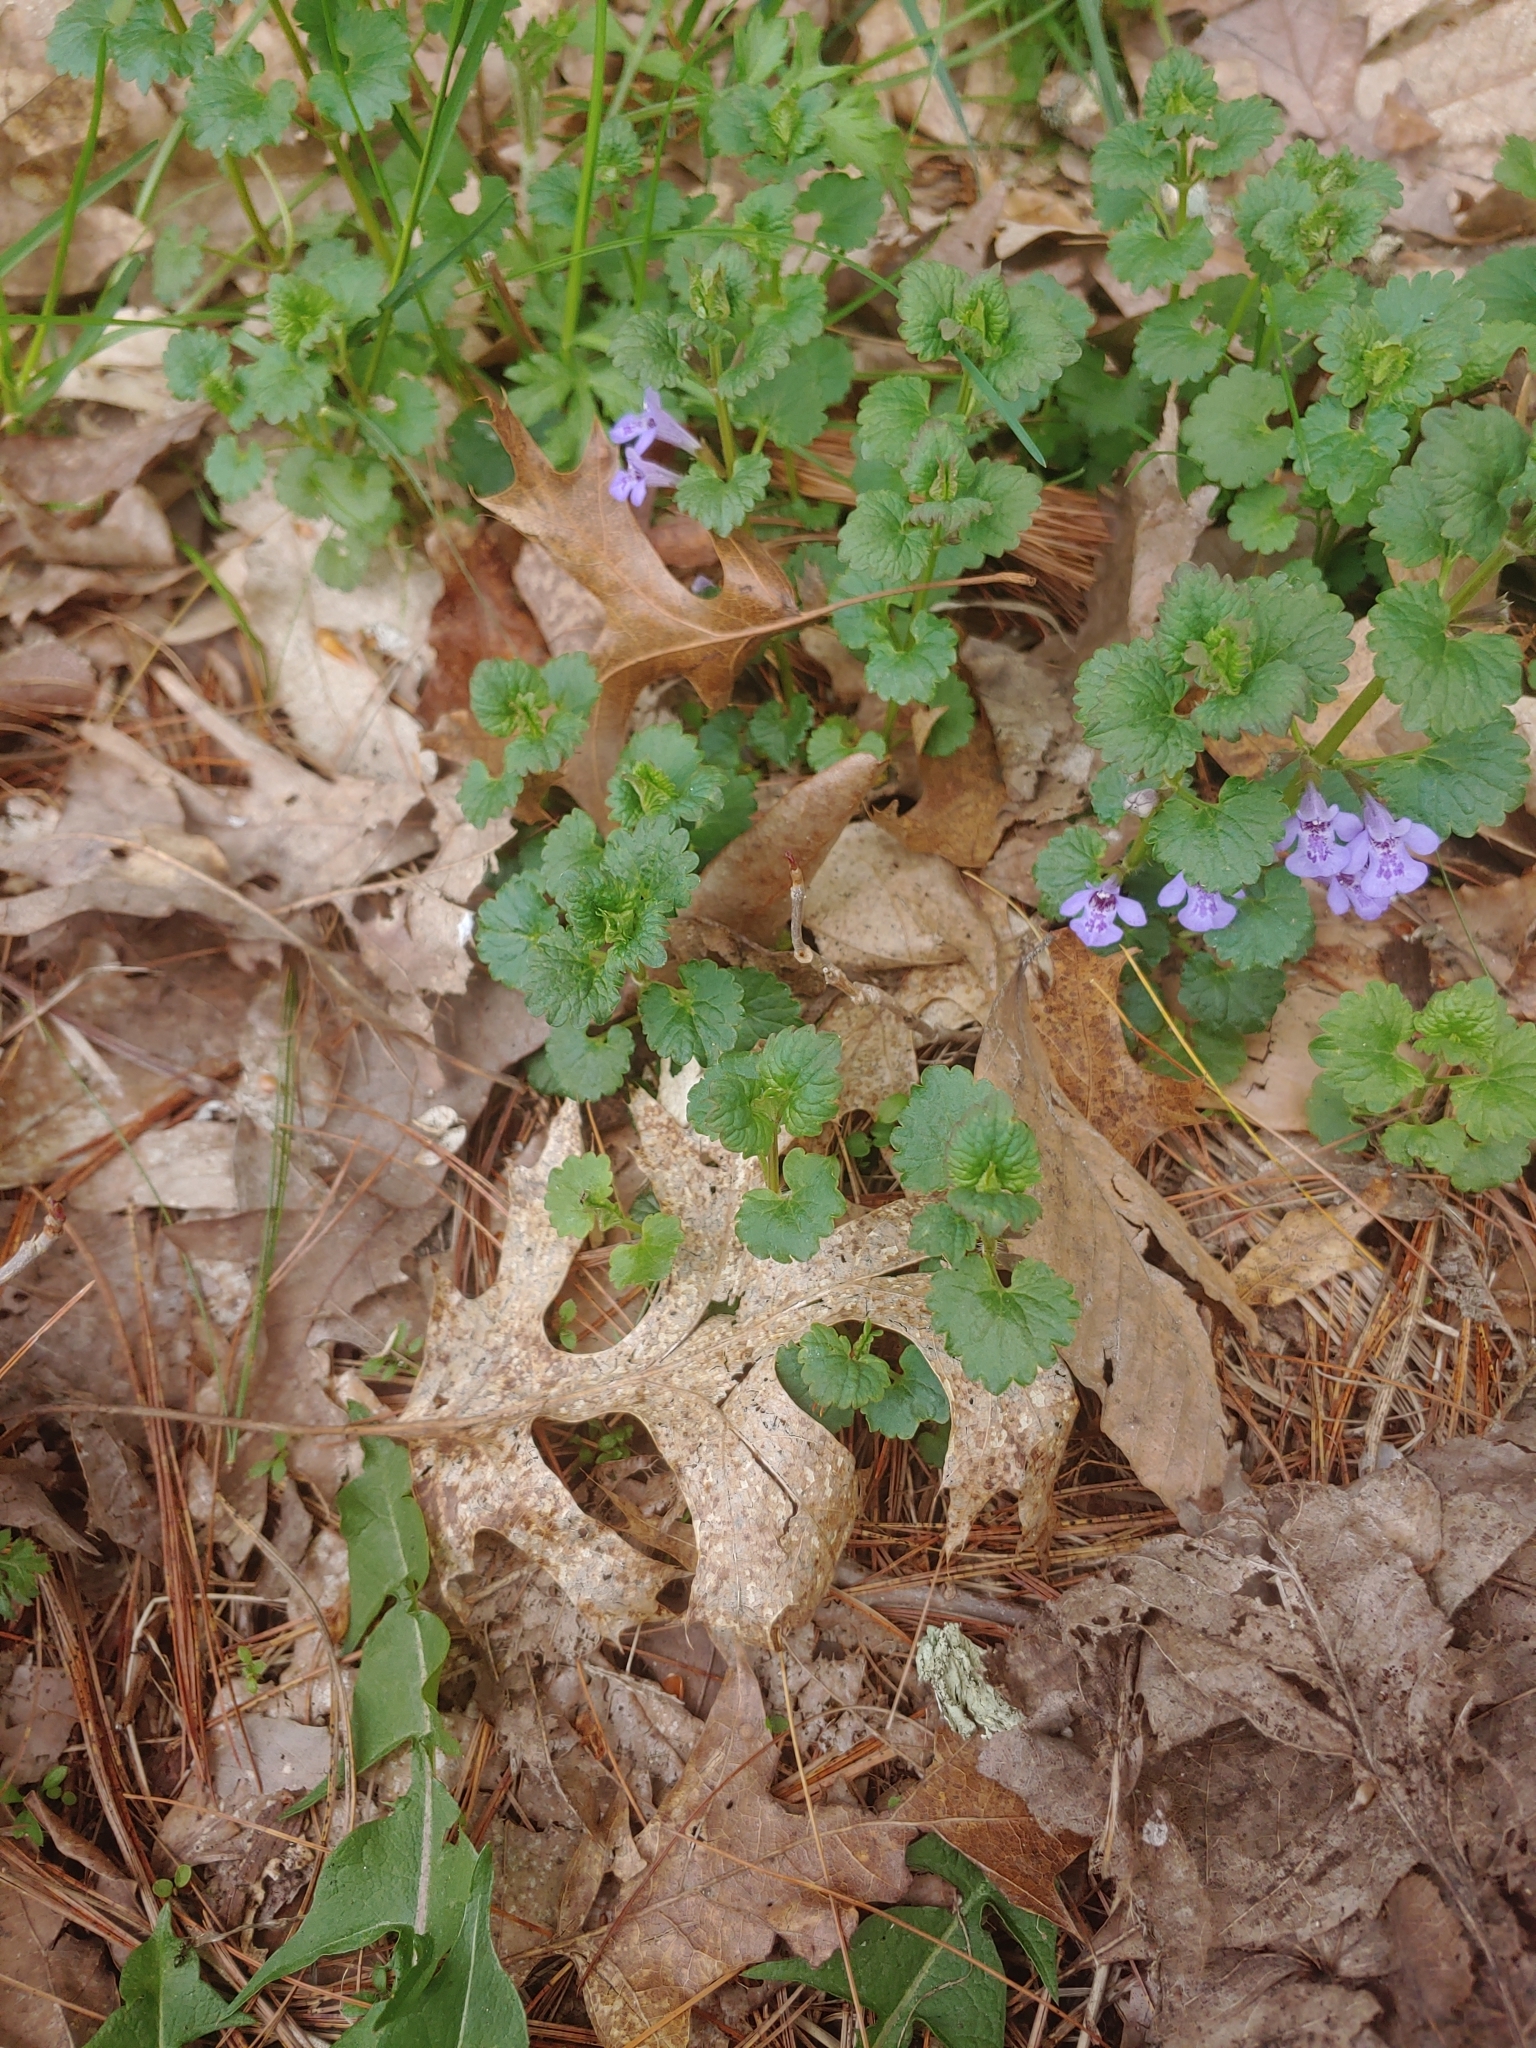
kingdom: Plantae
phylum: Tracheophyta
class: Magnoliopsida
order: Lamiales
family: Lamiaceae
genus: Glechoma
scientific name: Glechoma hederacea
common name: Ground ivy
